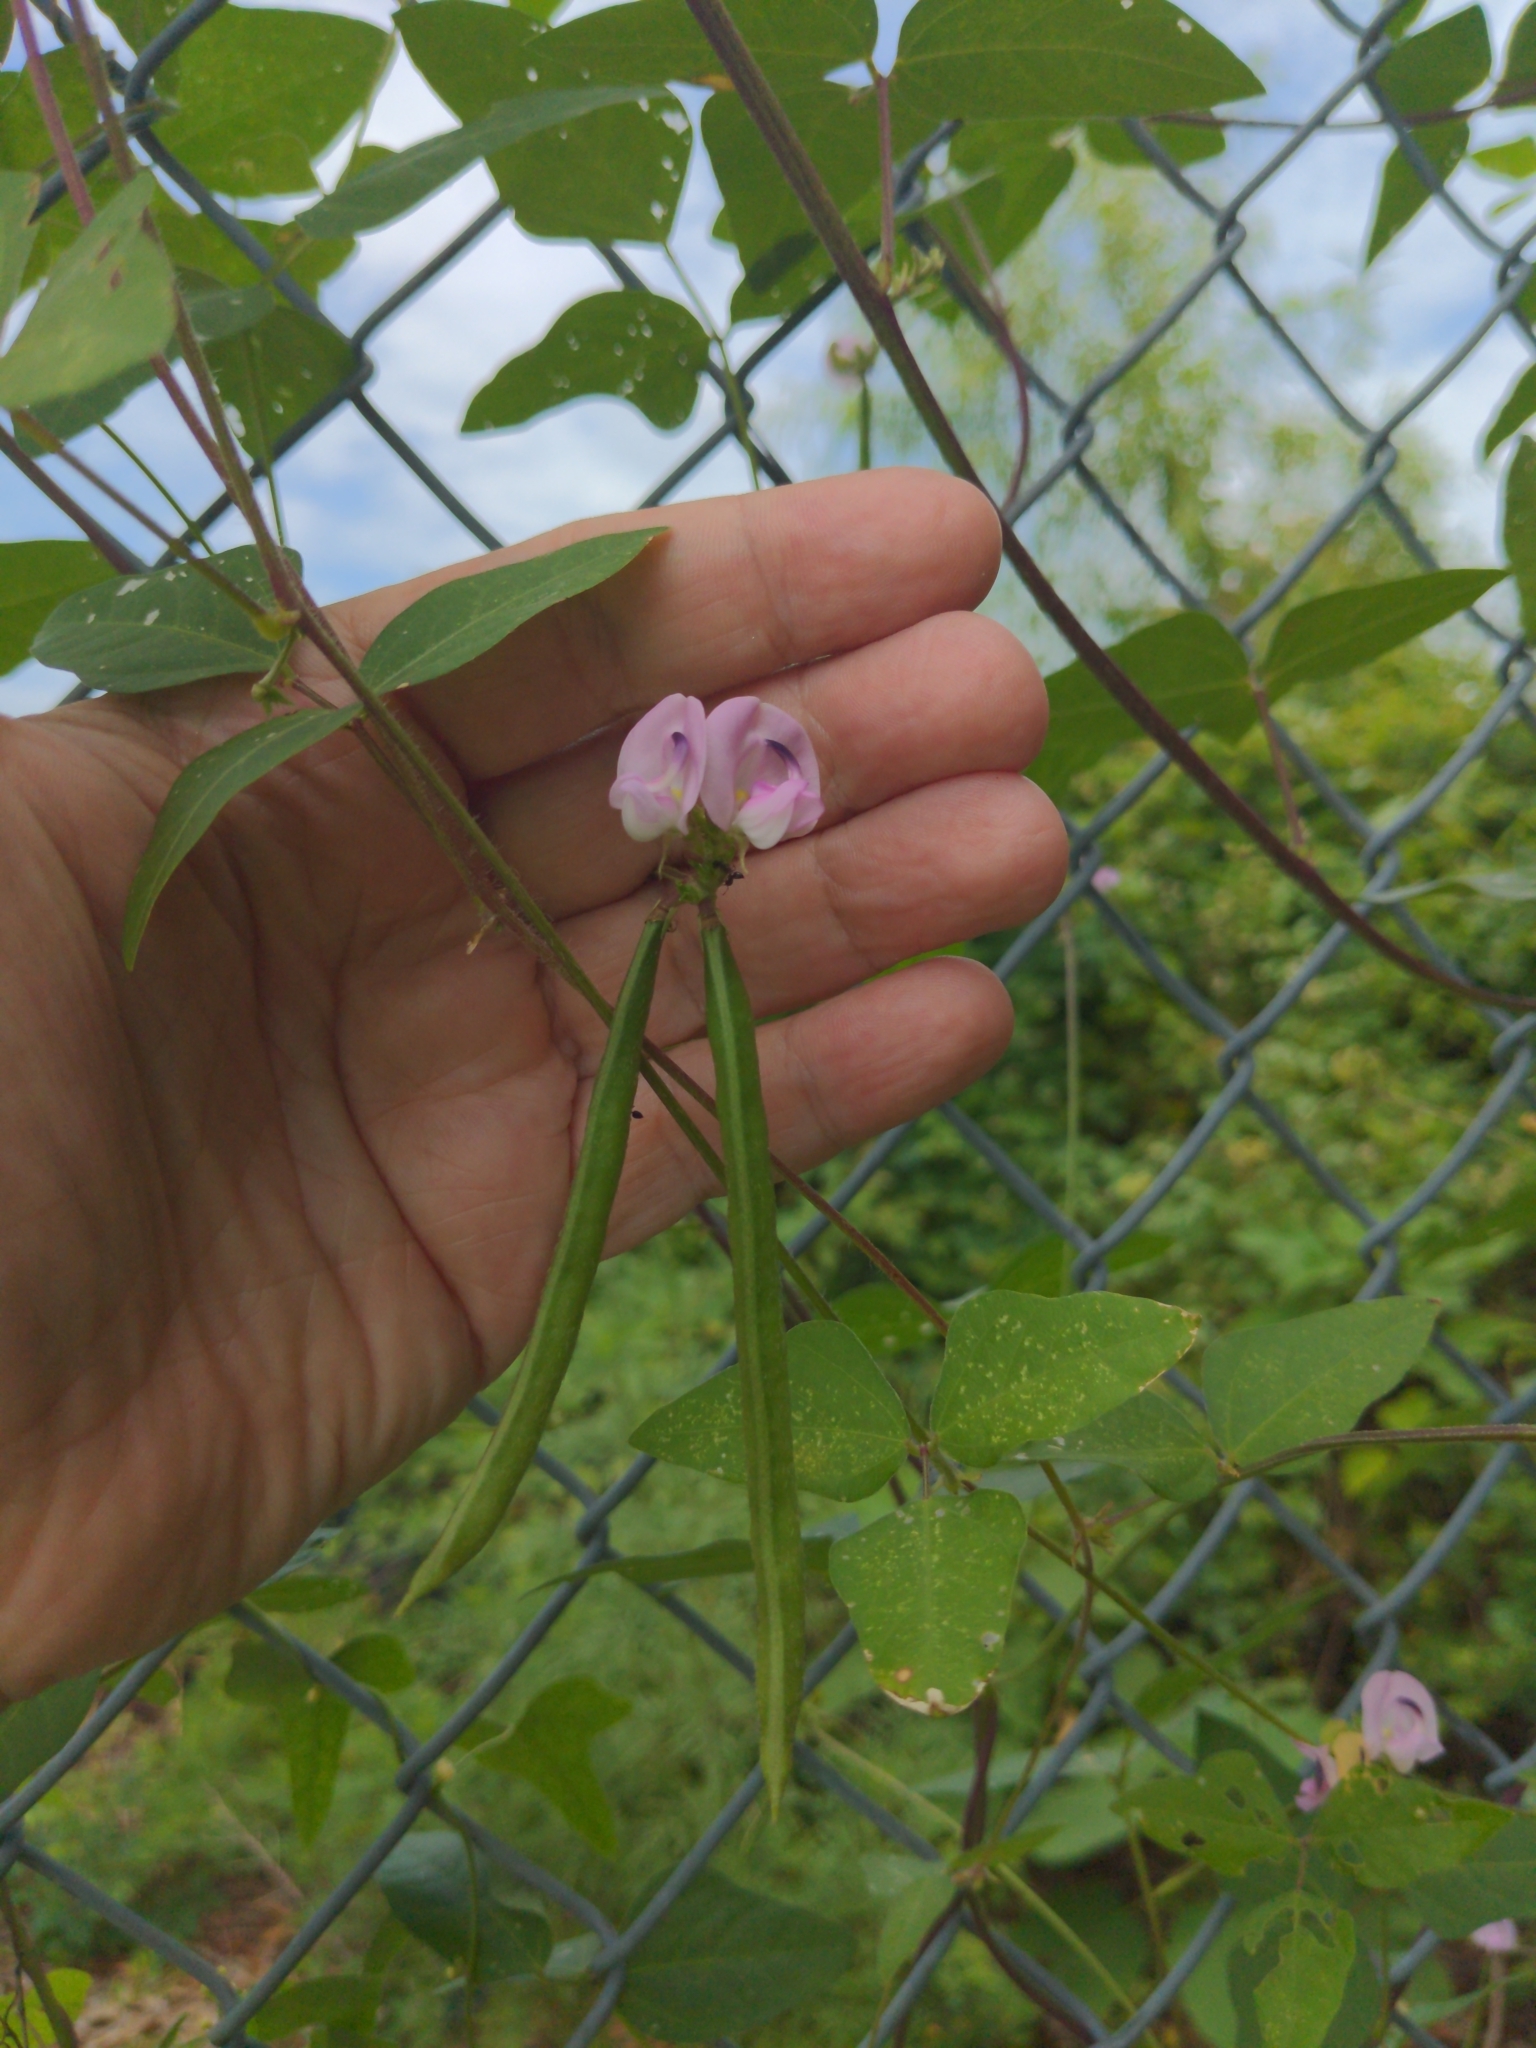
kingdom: Plantae
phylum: Tracheophyta
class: Magnoliopsida
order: Fabales
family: Fabaceae
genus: Strophostyles
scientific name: Strophostyles helvola
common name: Trailing wild bean
